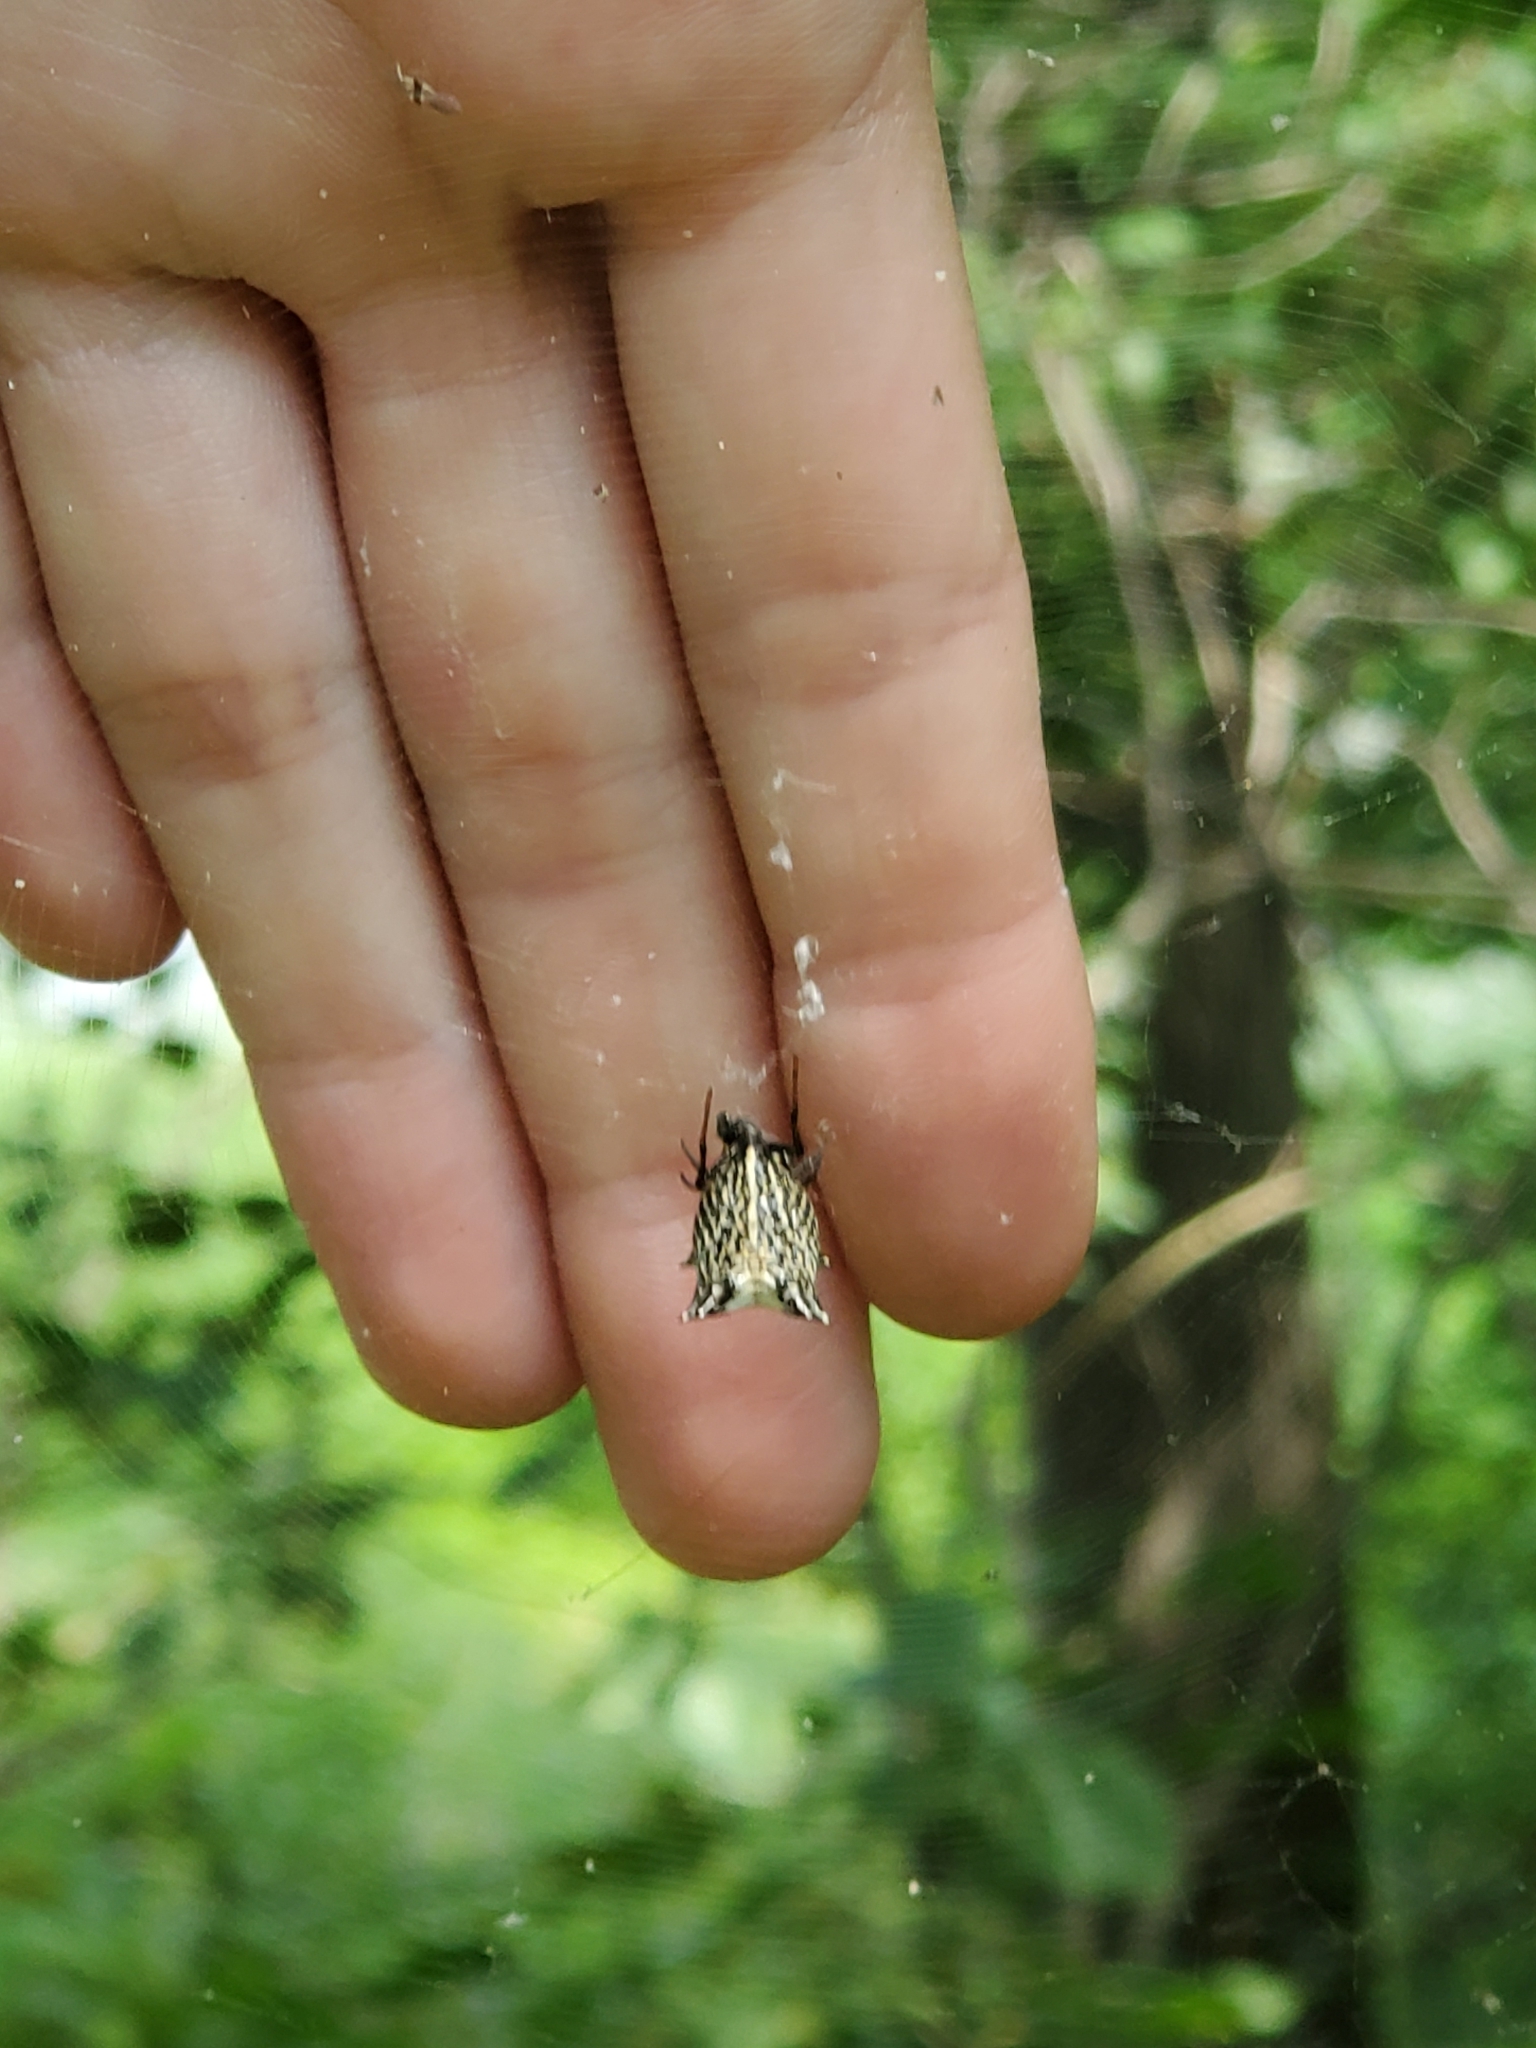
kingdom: Animalia
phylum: Arthropoda
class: Arachnida
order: Araneae
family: Araneidae
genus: Micrathena
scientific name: Micrathena gracilis
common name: Orb weavers
